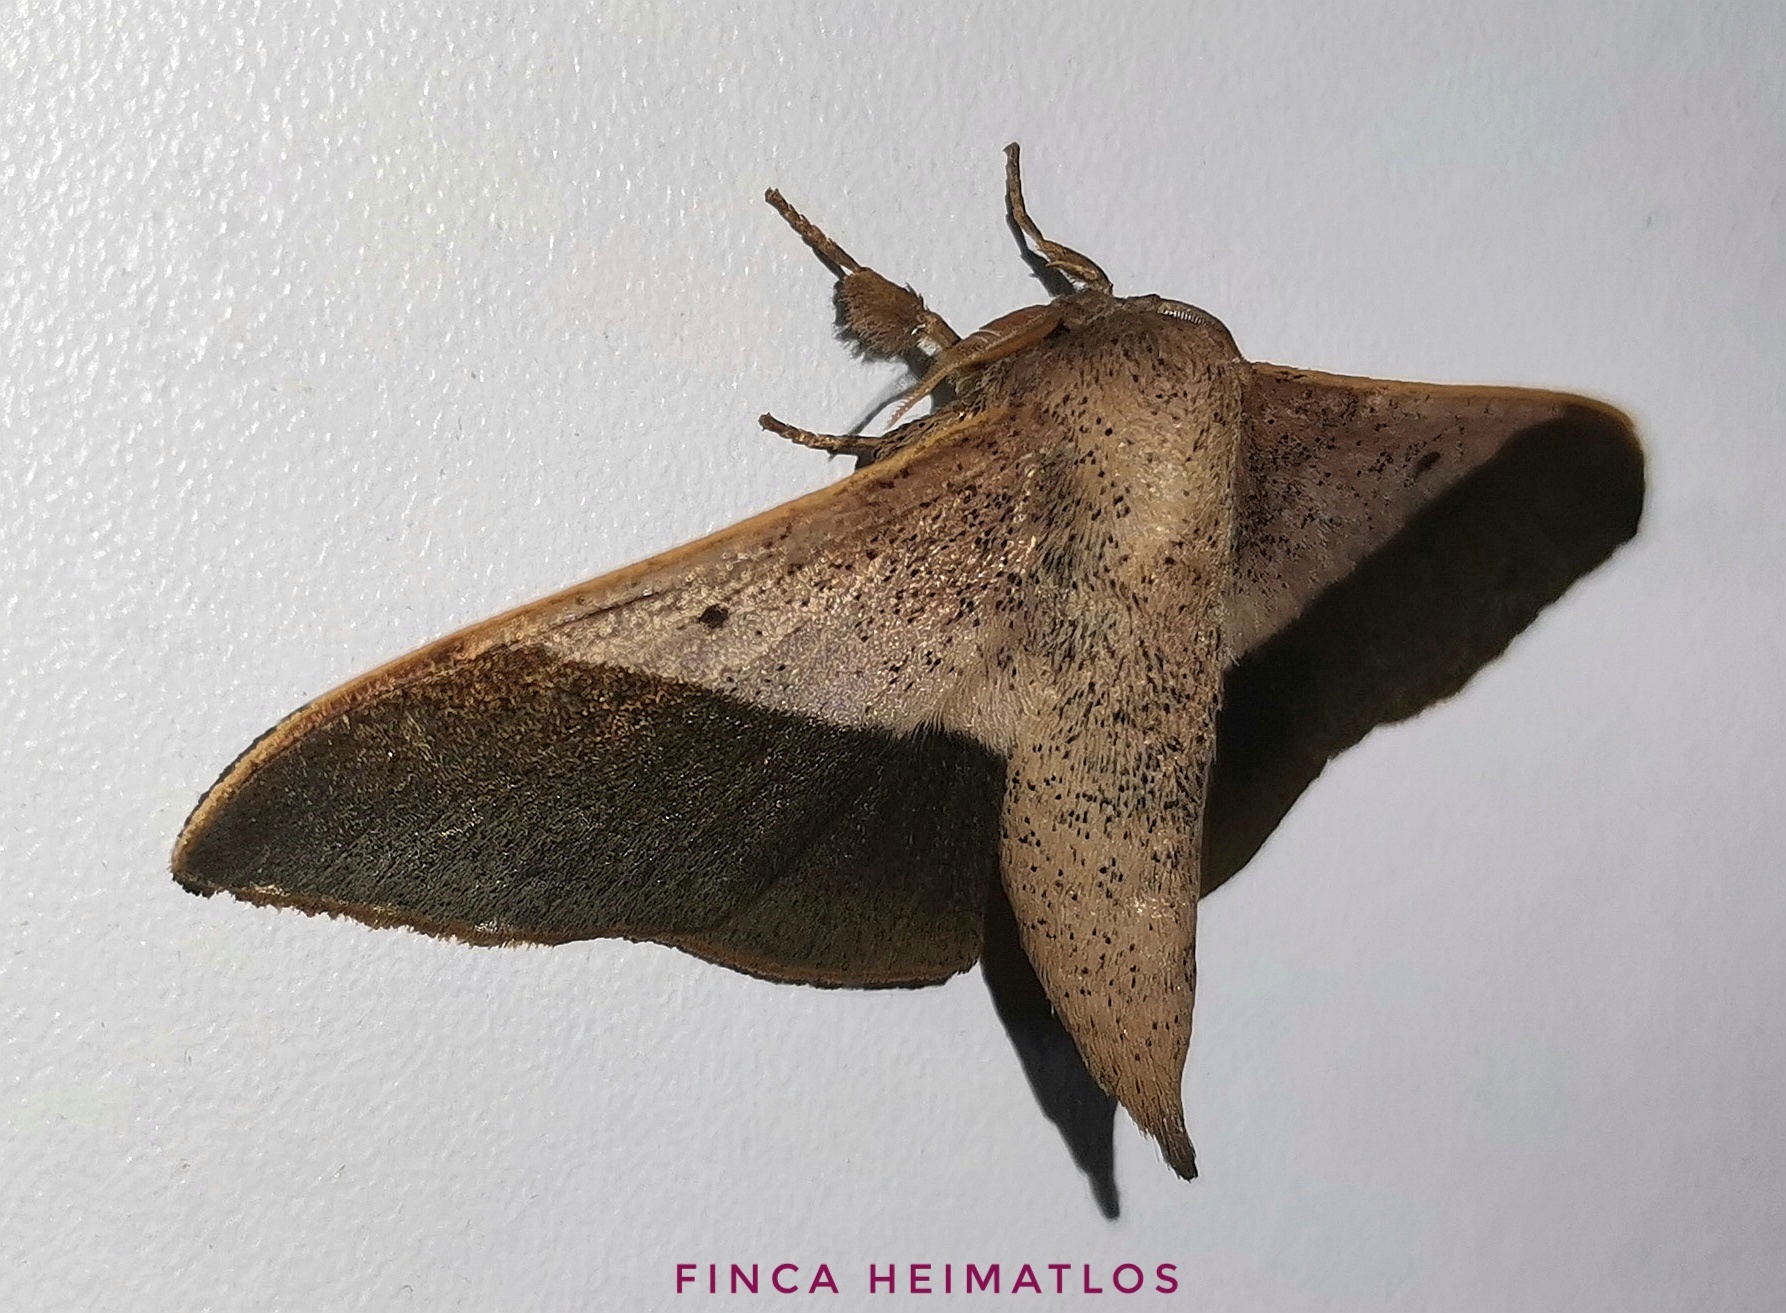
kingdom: Animalia
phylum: Arthropoda
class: Insecta
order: Lepidoptera
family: Mimallonidae
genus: Psychocampa
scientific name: Psychocampa kohlli
